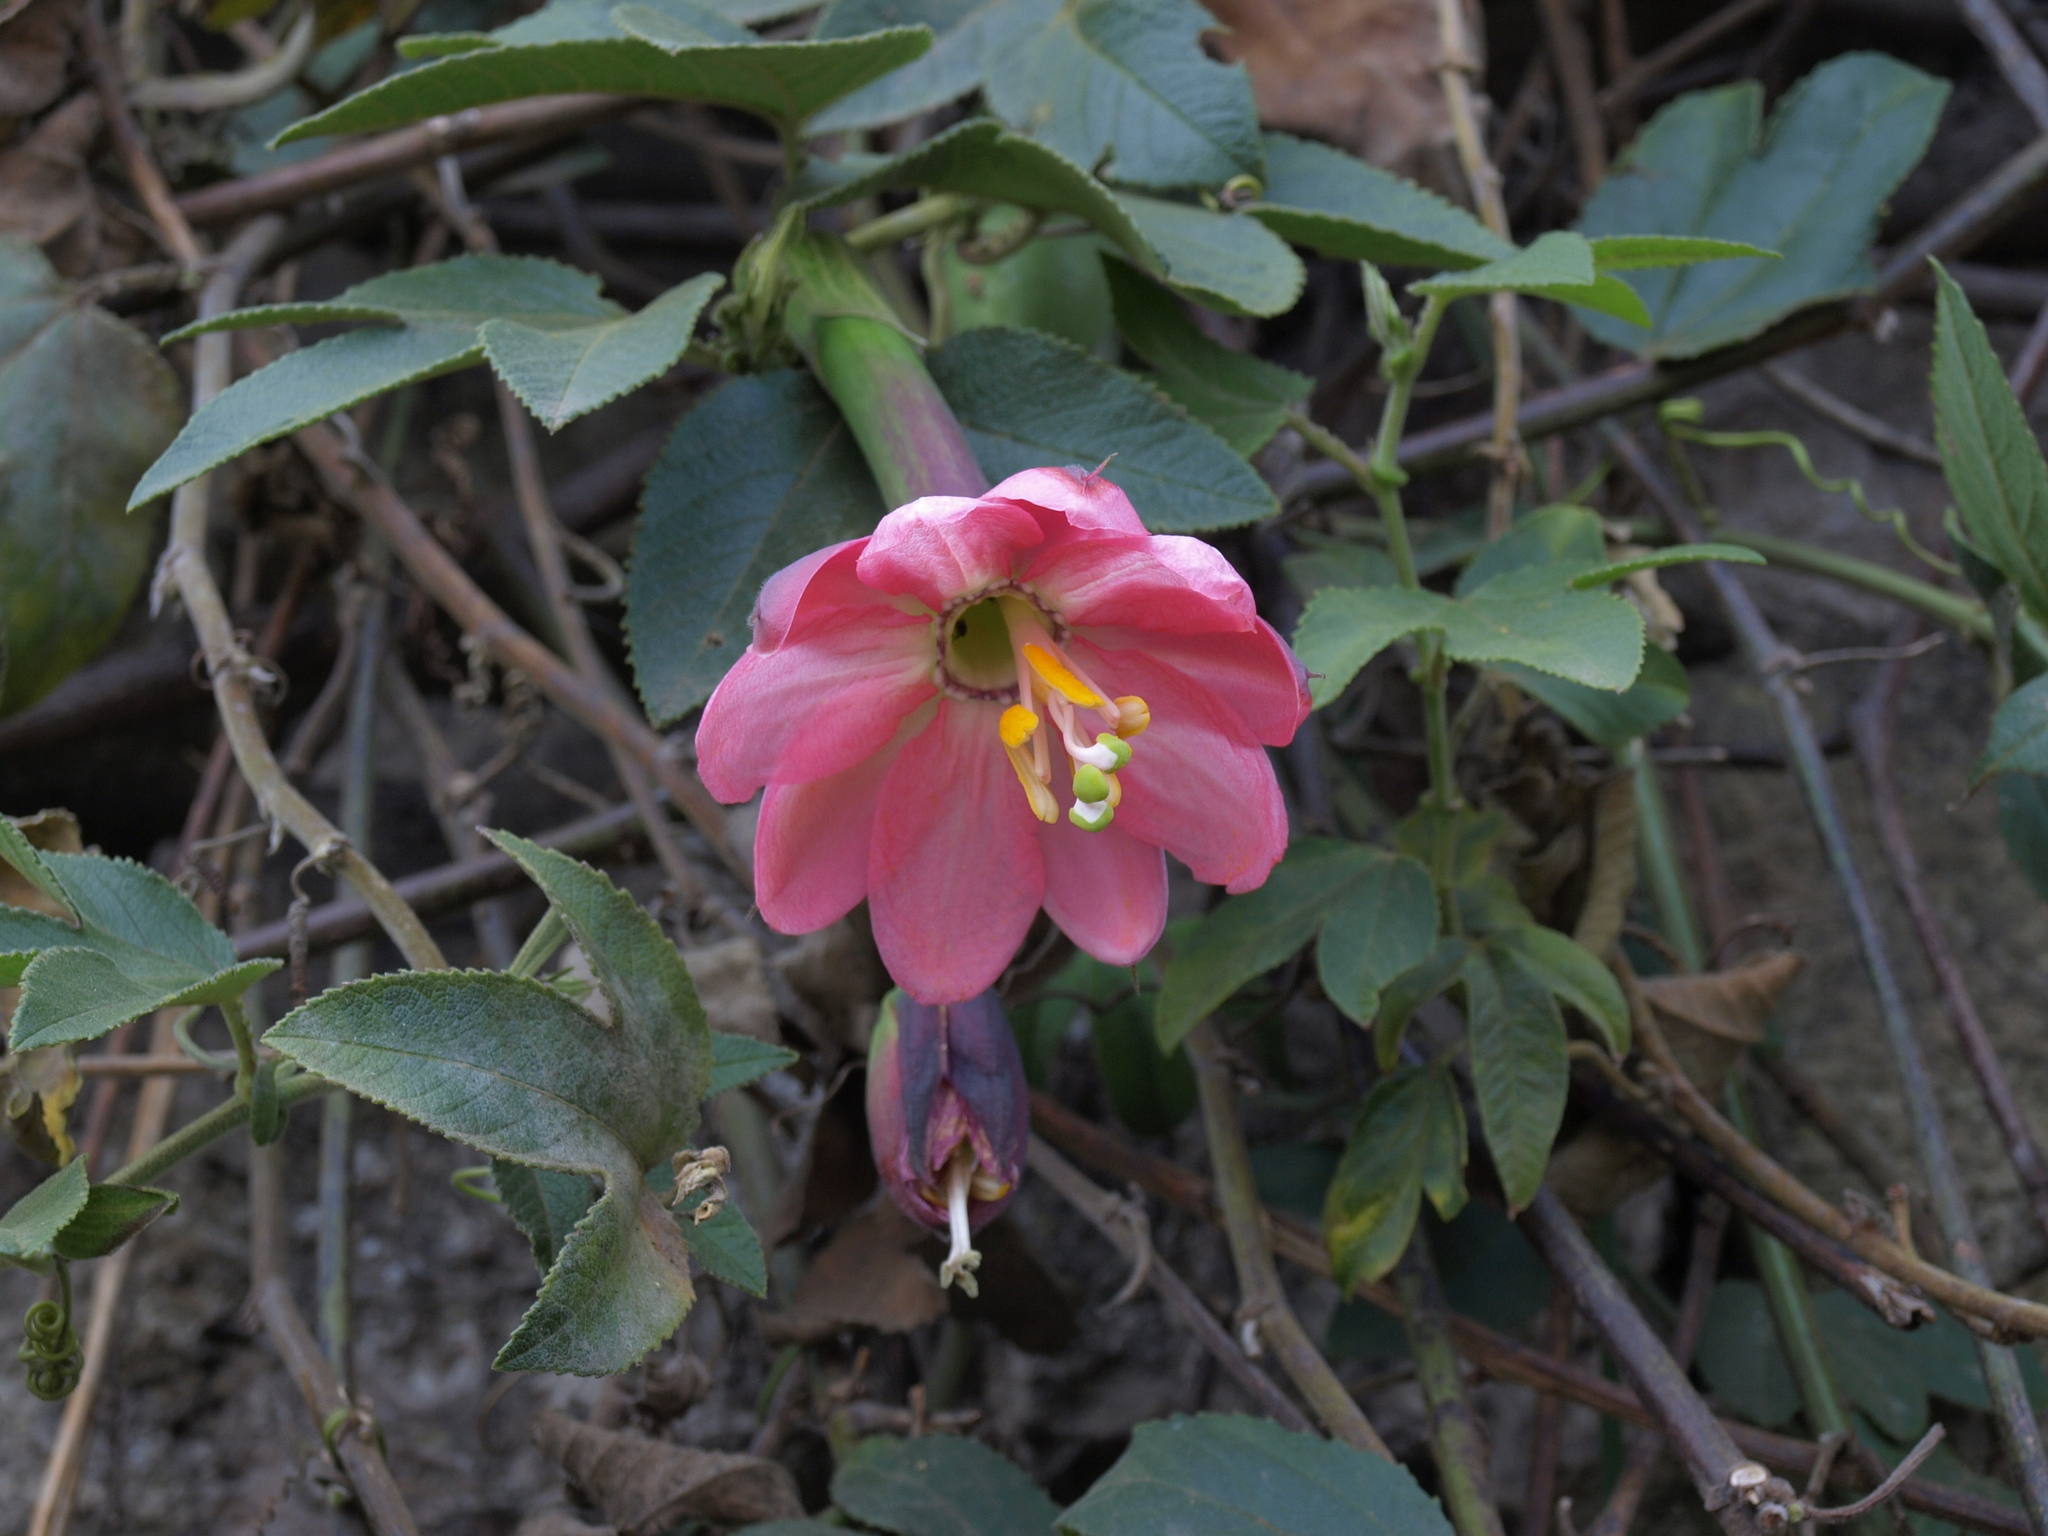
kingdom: Plantae
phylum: Tracheophyta
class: Magnoliopsida
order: Malpighiales
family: Passifloraceae
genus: Passiflora
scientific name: Passiflora tripartita
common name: Banana poka
